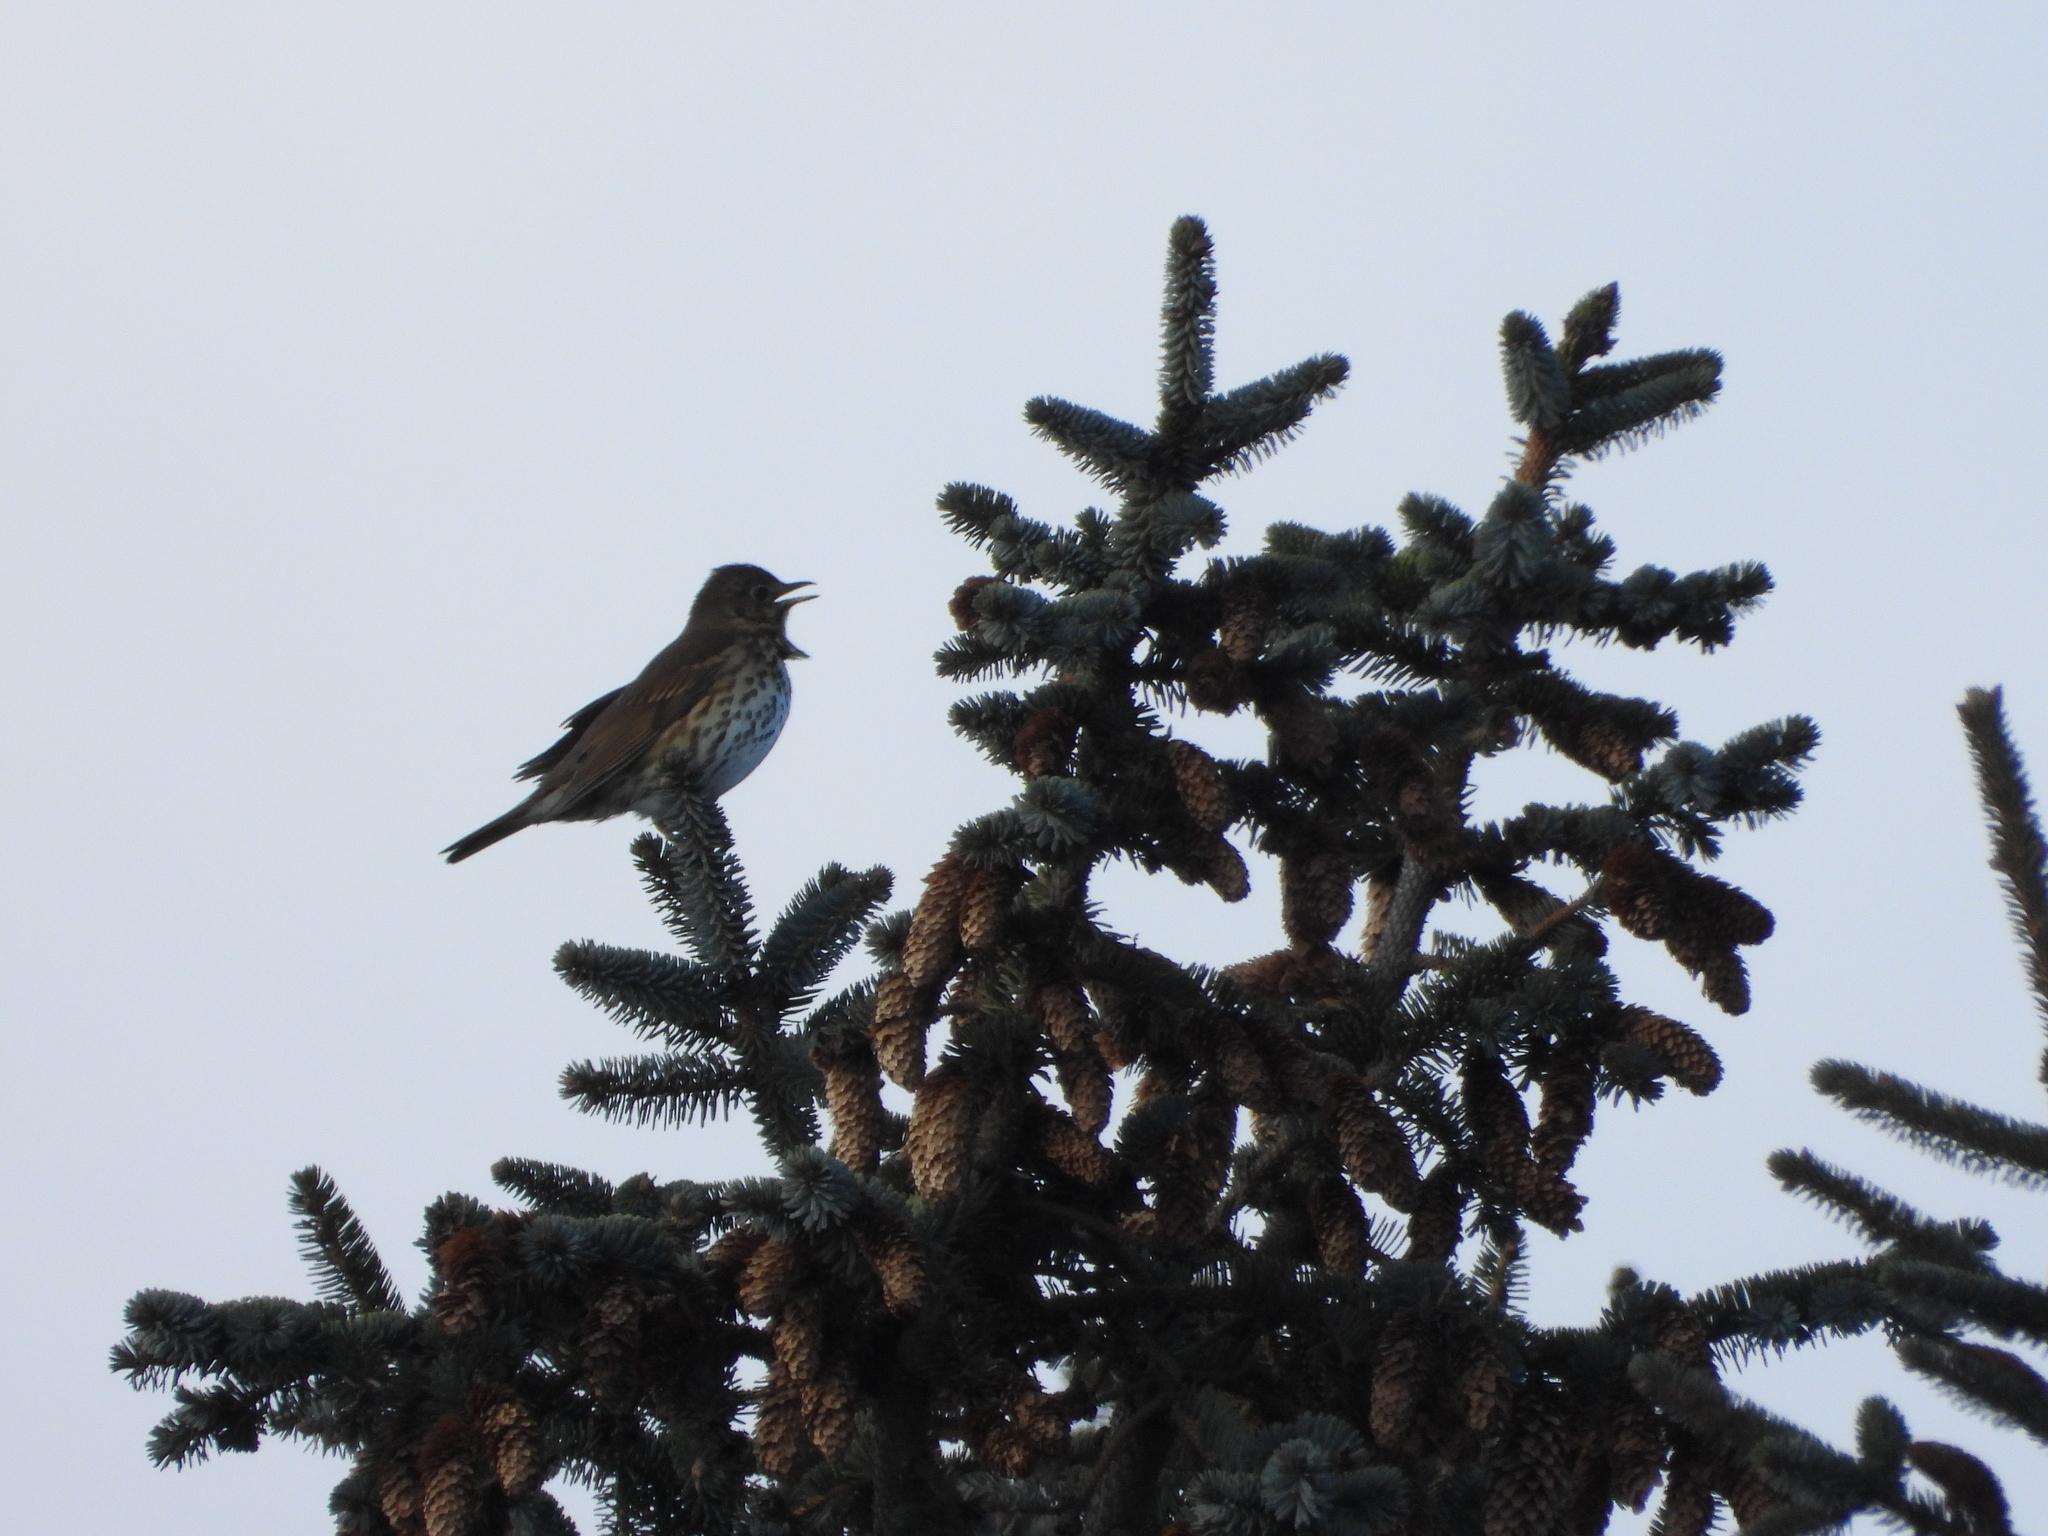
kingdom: Animalia
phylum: Chordata
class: Aves
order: Passeriformes
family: Turdidae
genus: Turdus
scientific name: Turdus philomelos
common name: Song thrush
